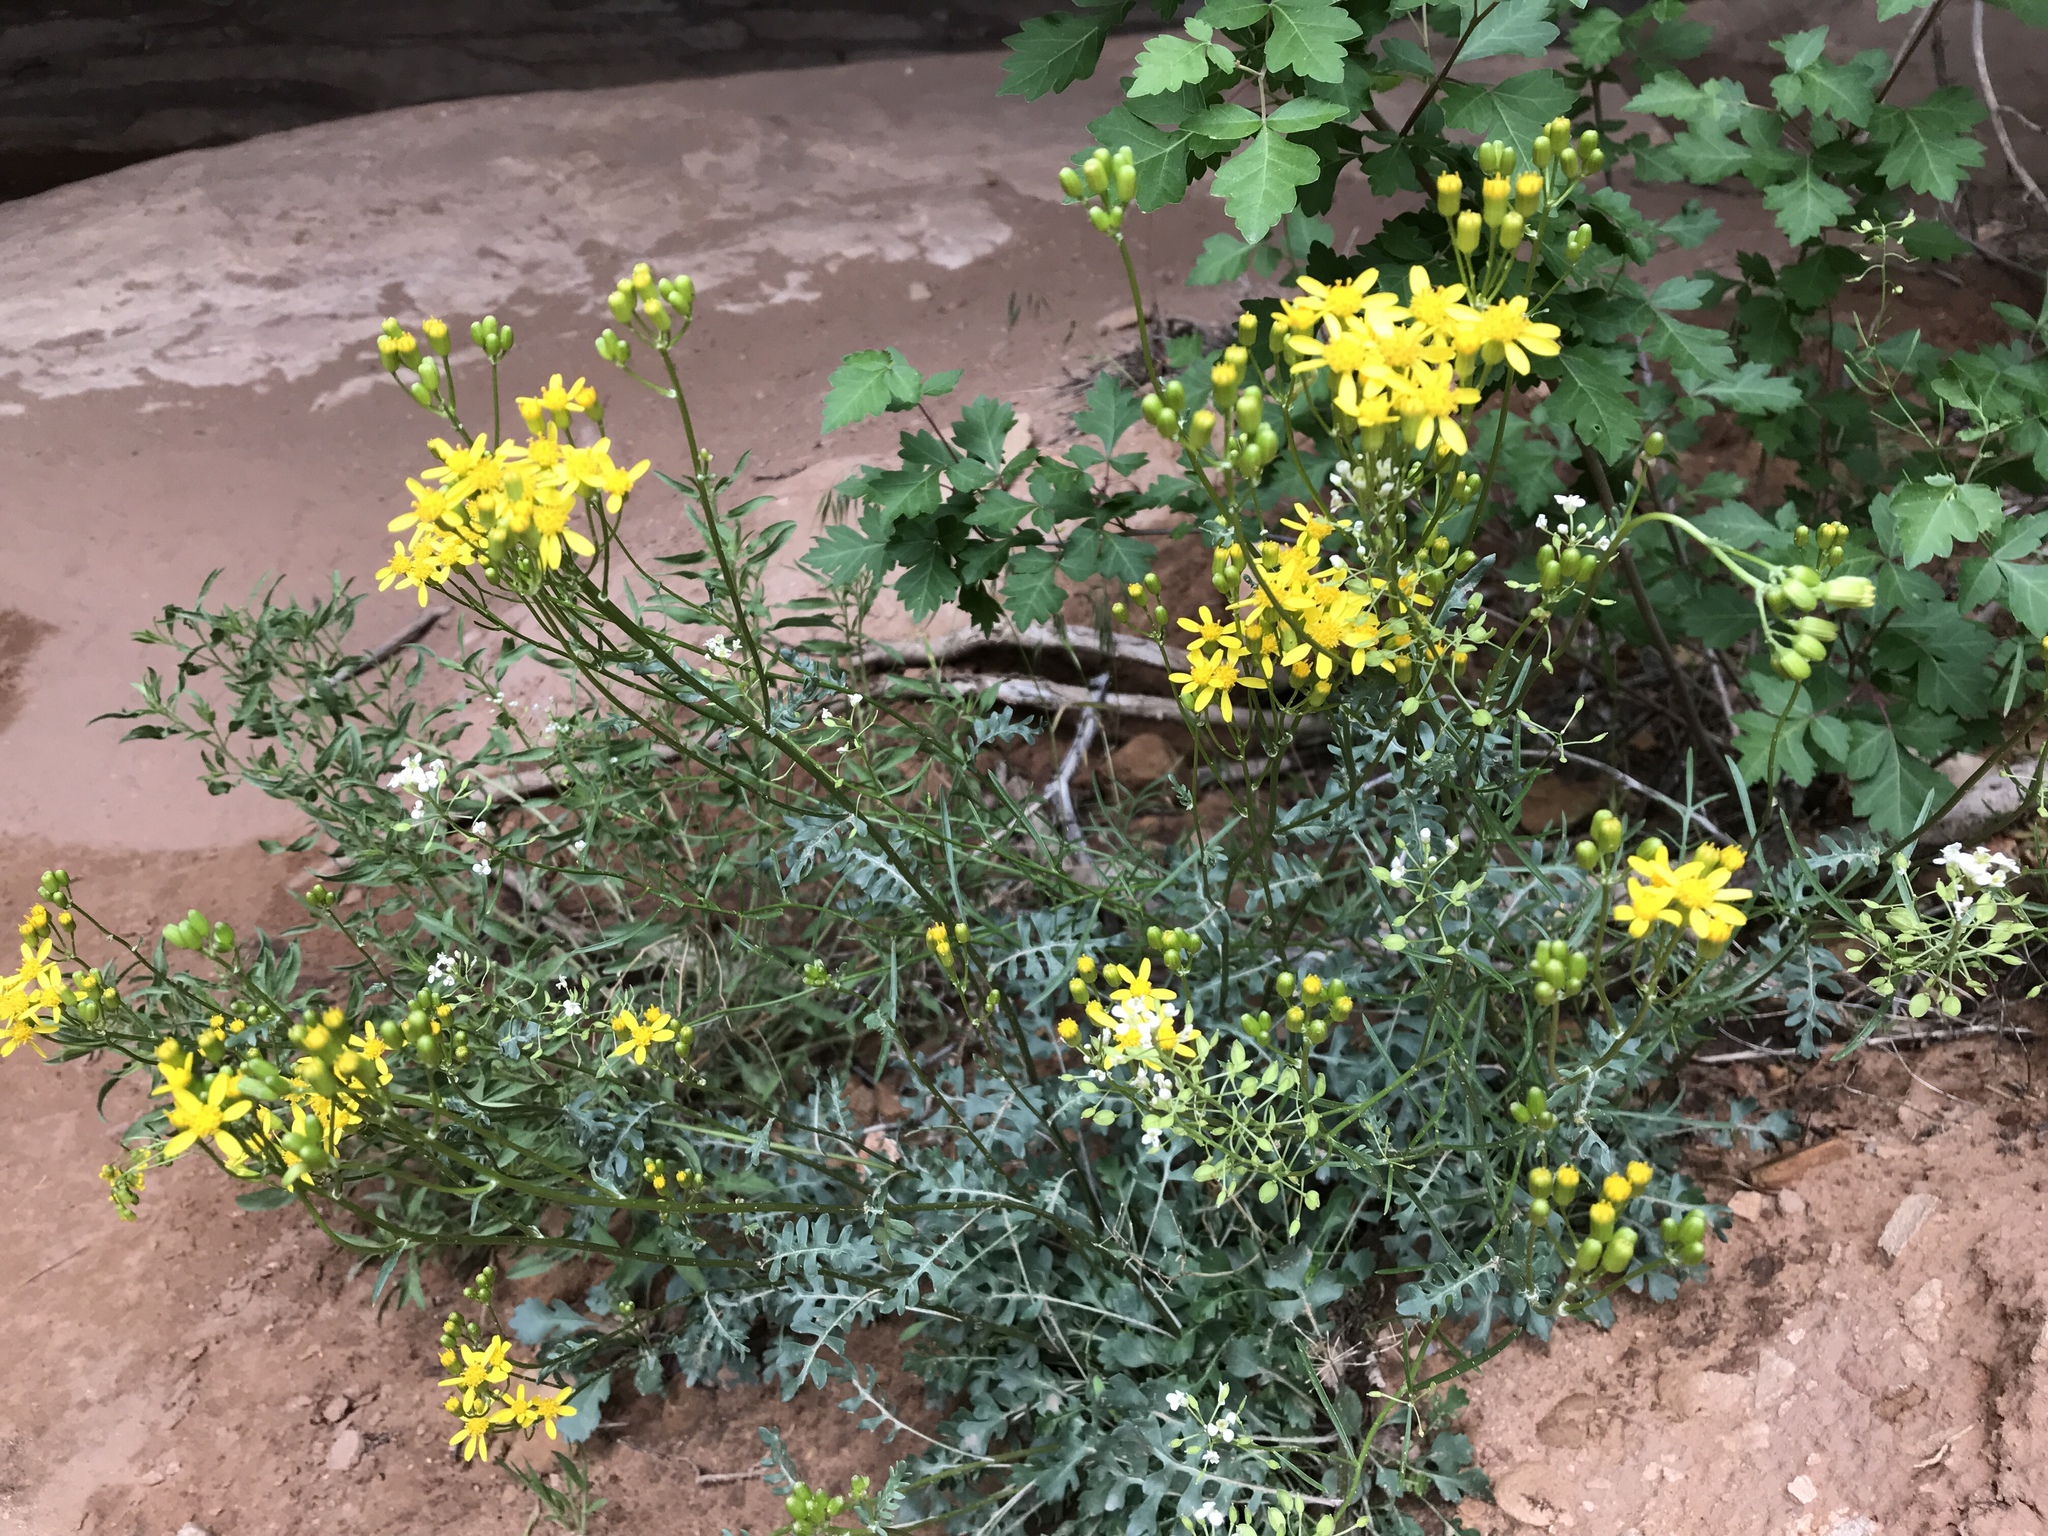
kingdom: Plantae
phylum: Tracheophyta
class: Magnoliopsida
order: Asterales
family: Asteraceae
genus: Packera
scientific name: Packera multilobata
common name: Lobe-leaf groundsel
